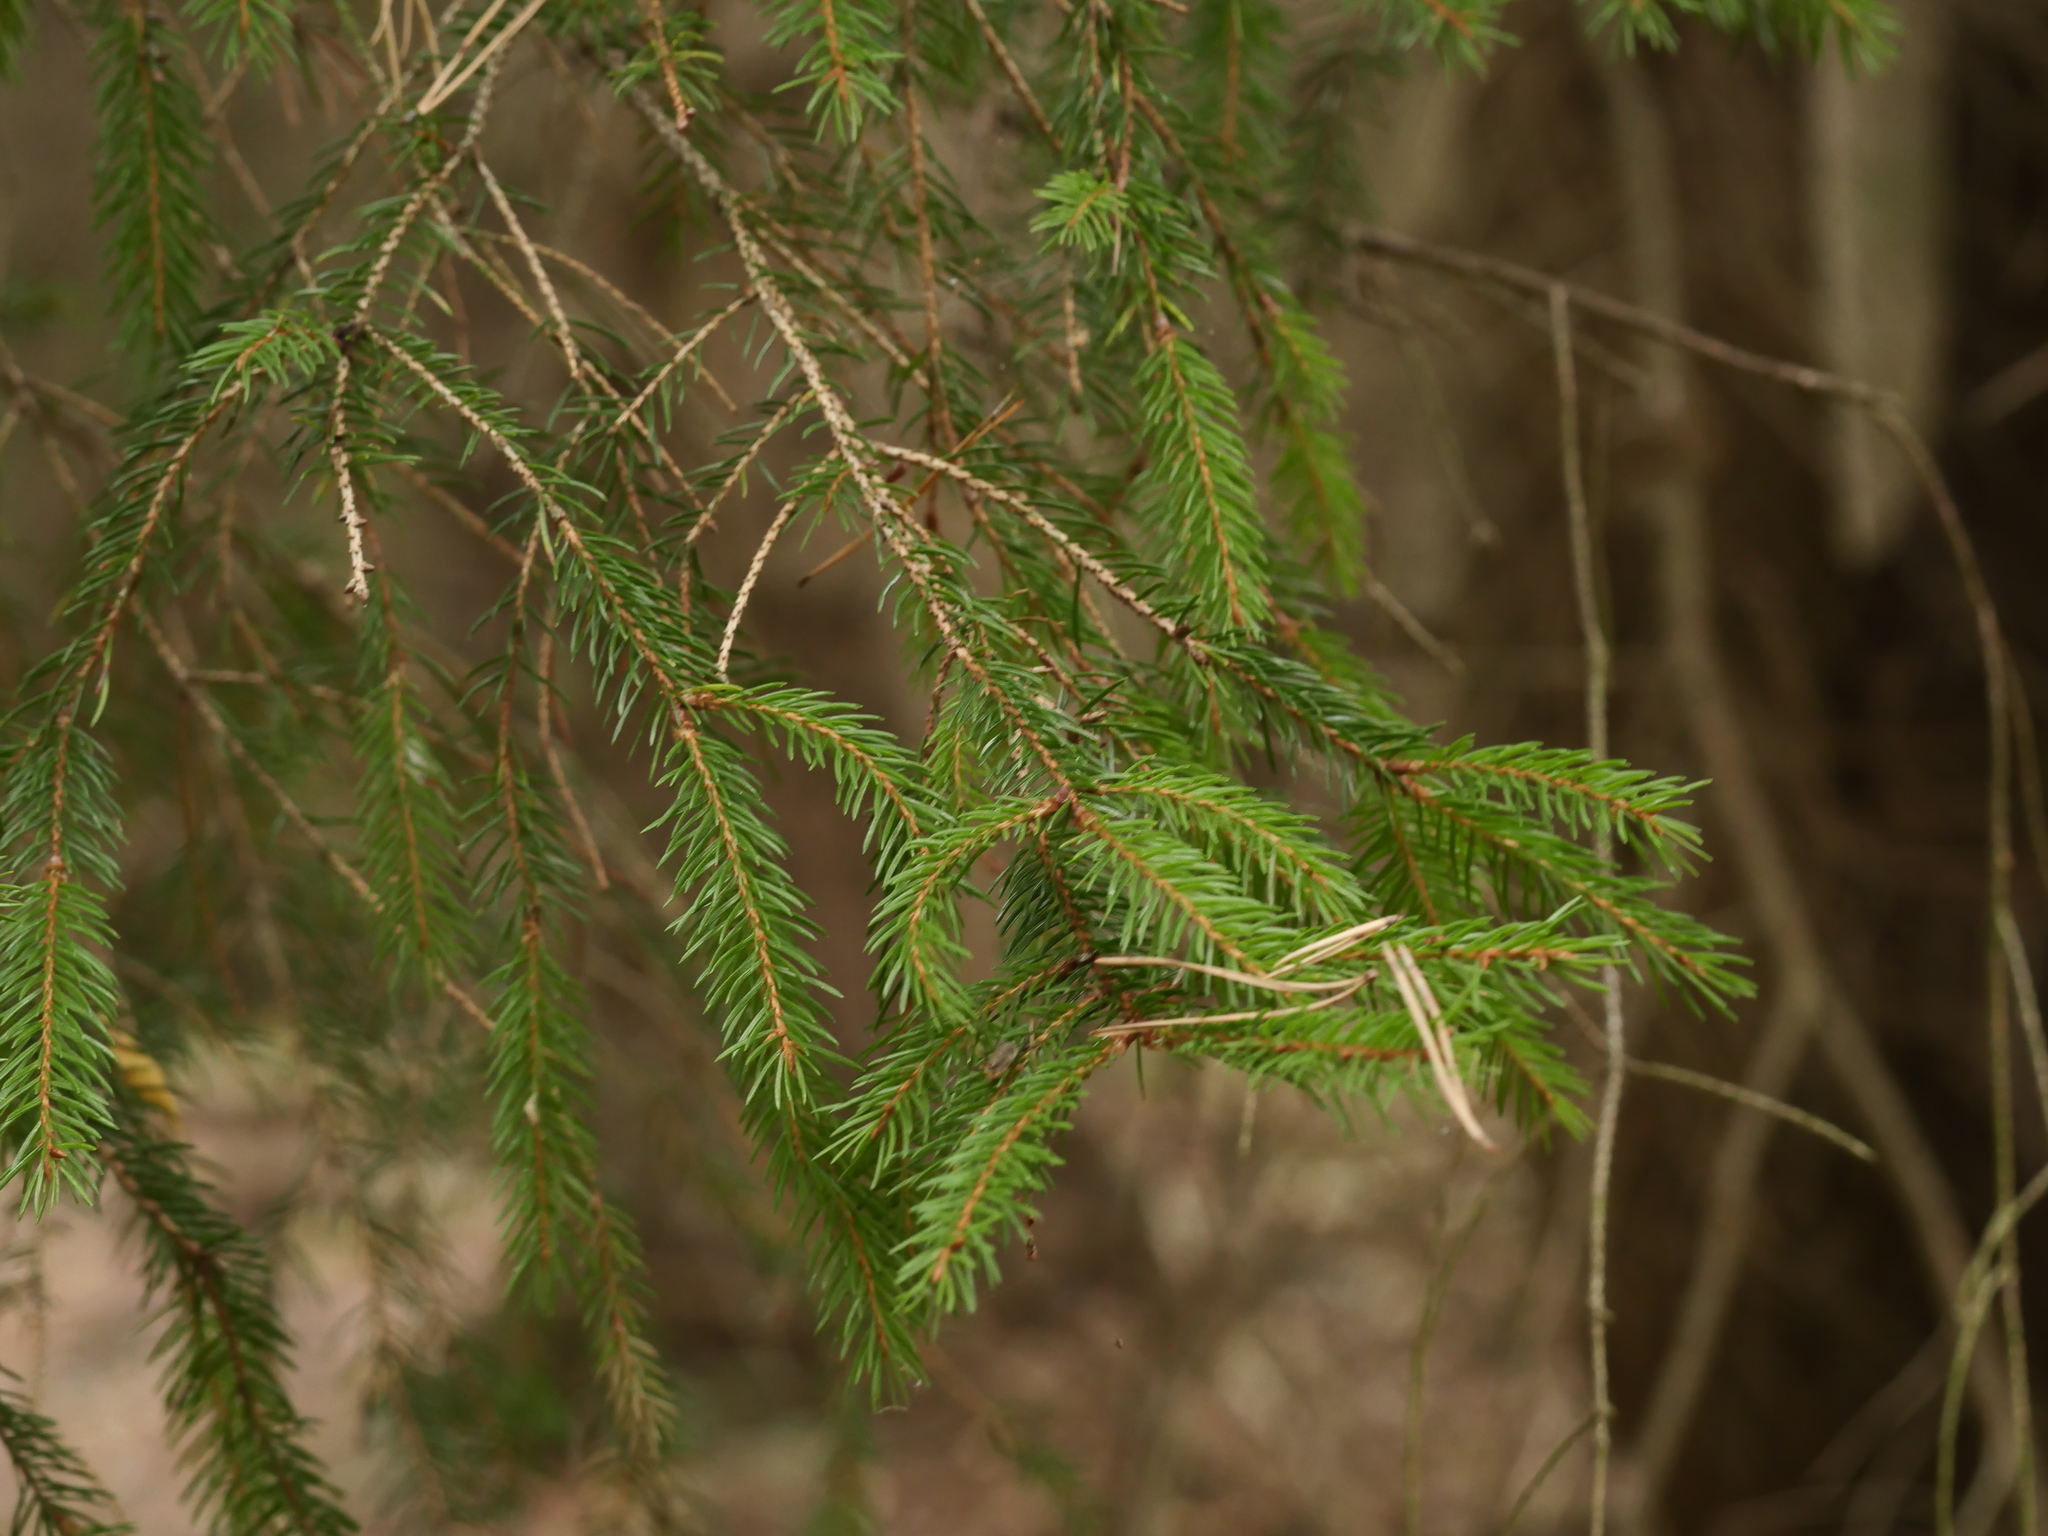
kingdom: Plantae
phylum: Tracheophyta
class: Pinopsida
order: Pinales
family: Pinaceae
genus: Picea
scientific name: Picea abies
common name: Norway spruce
